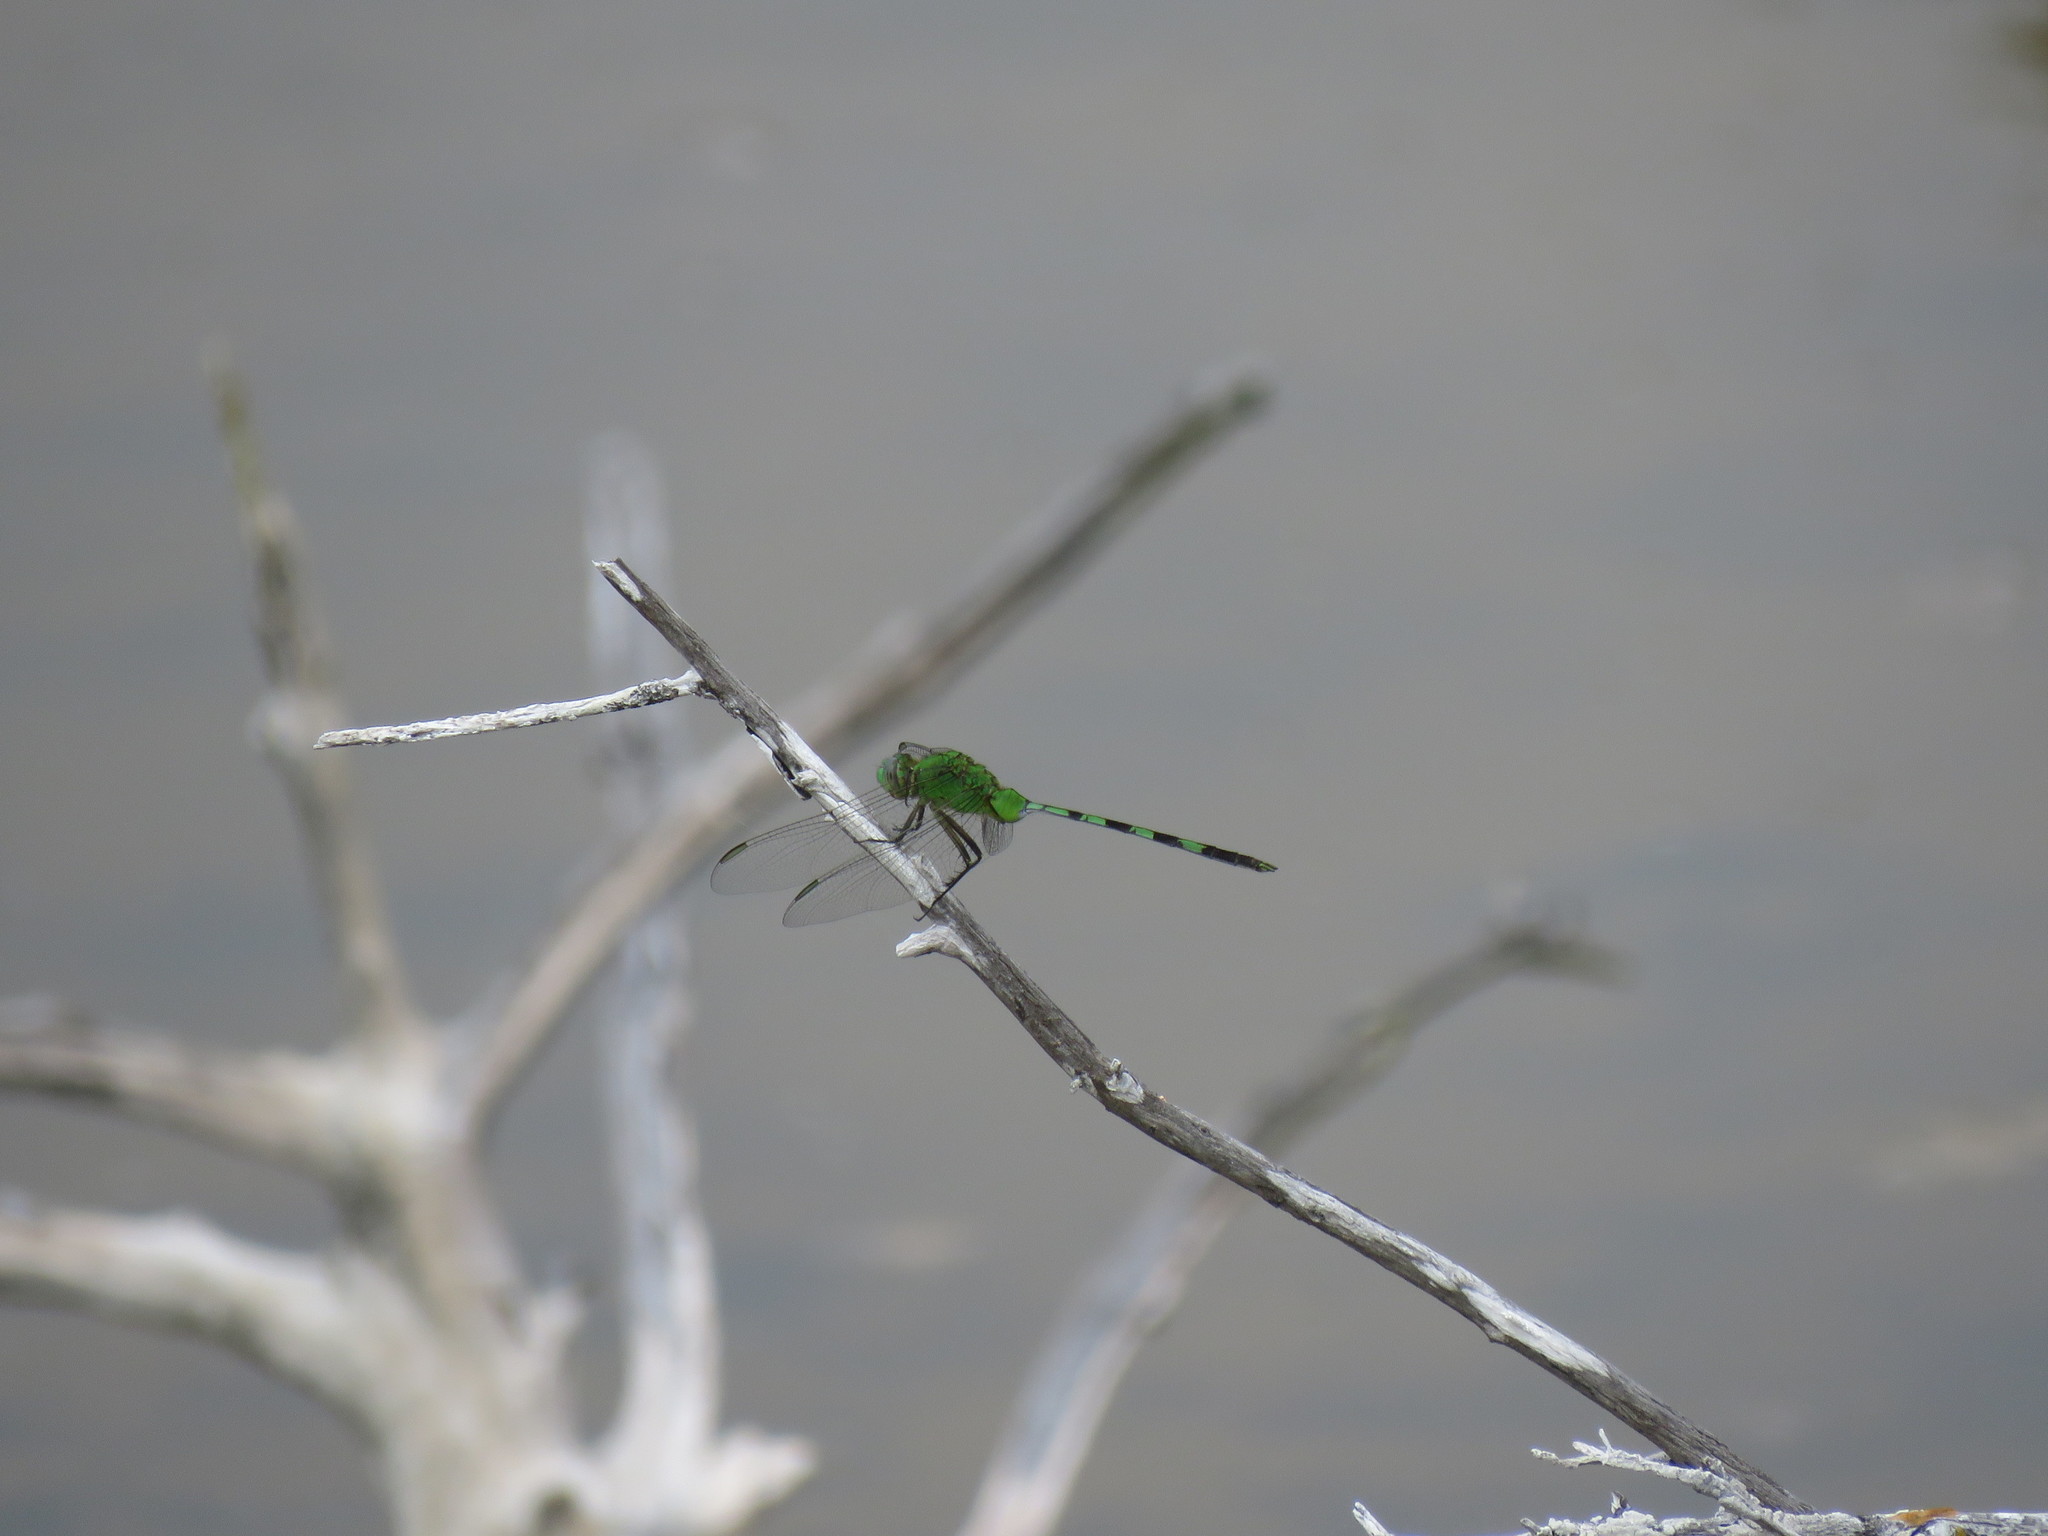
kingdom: Animalia
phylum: Arthropoda
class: Insecta
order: Odonata
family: Libellulidae
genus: Erythemis
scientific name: Erythemis vesiculosa
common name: Great pondhawk
